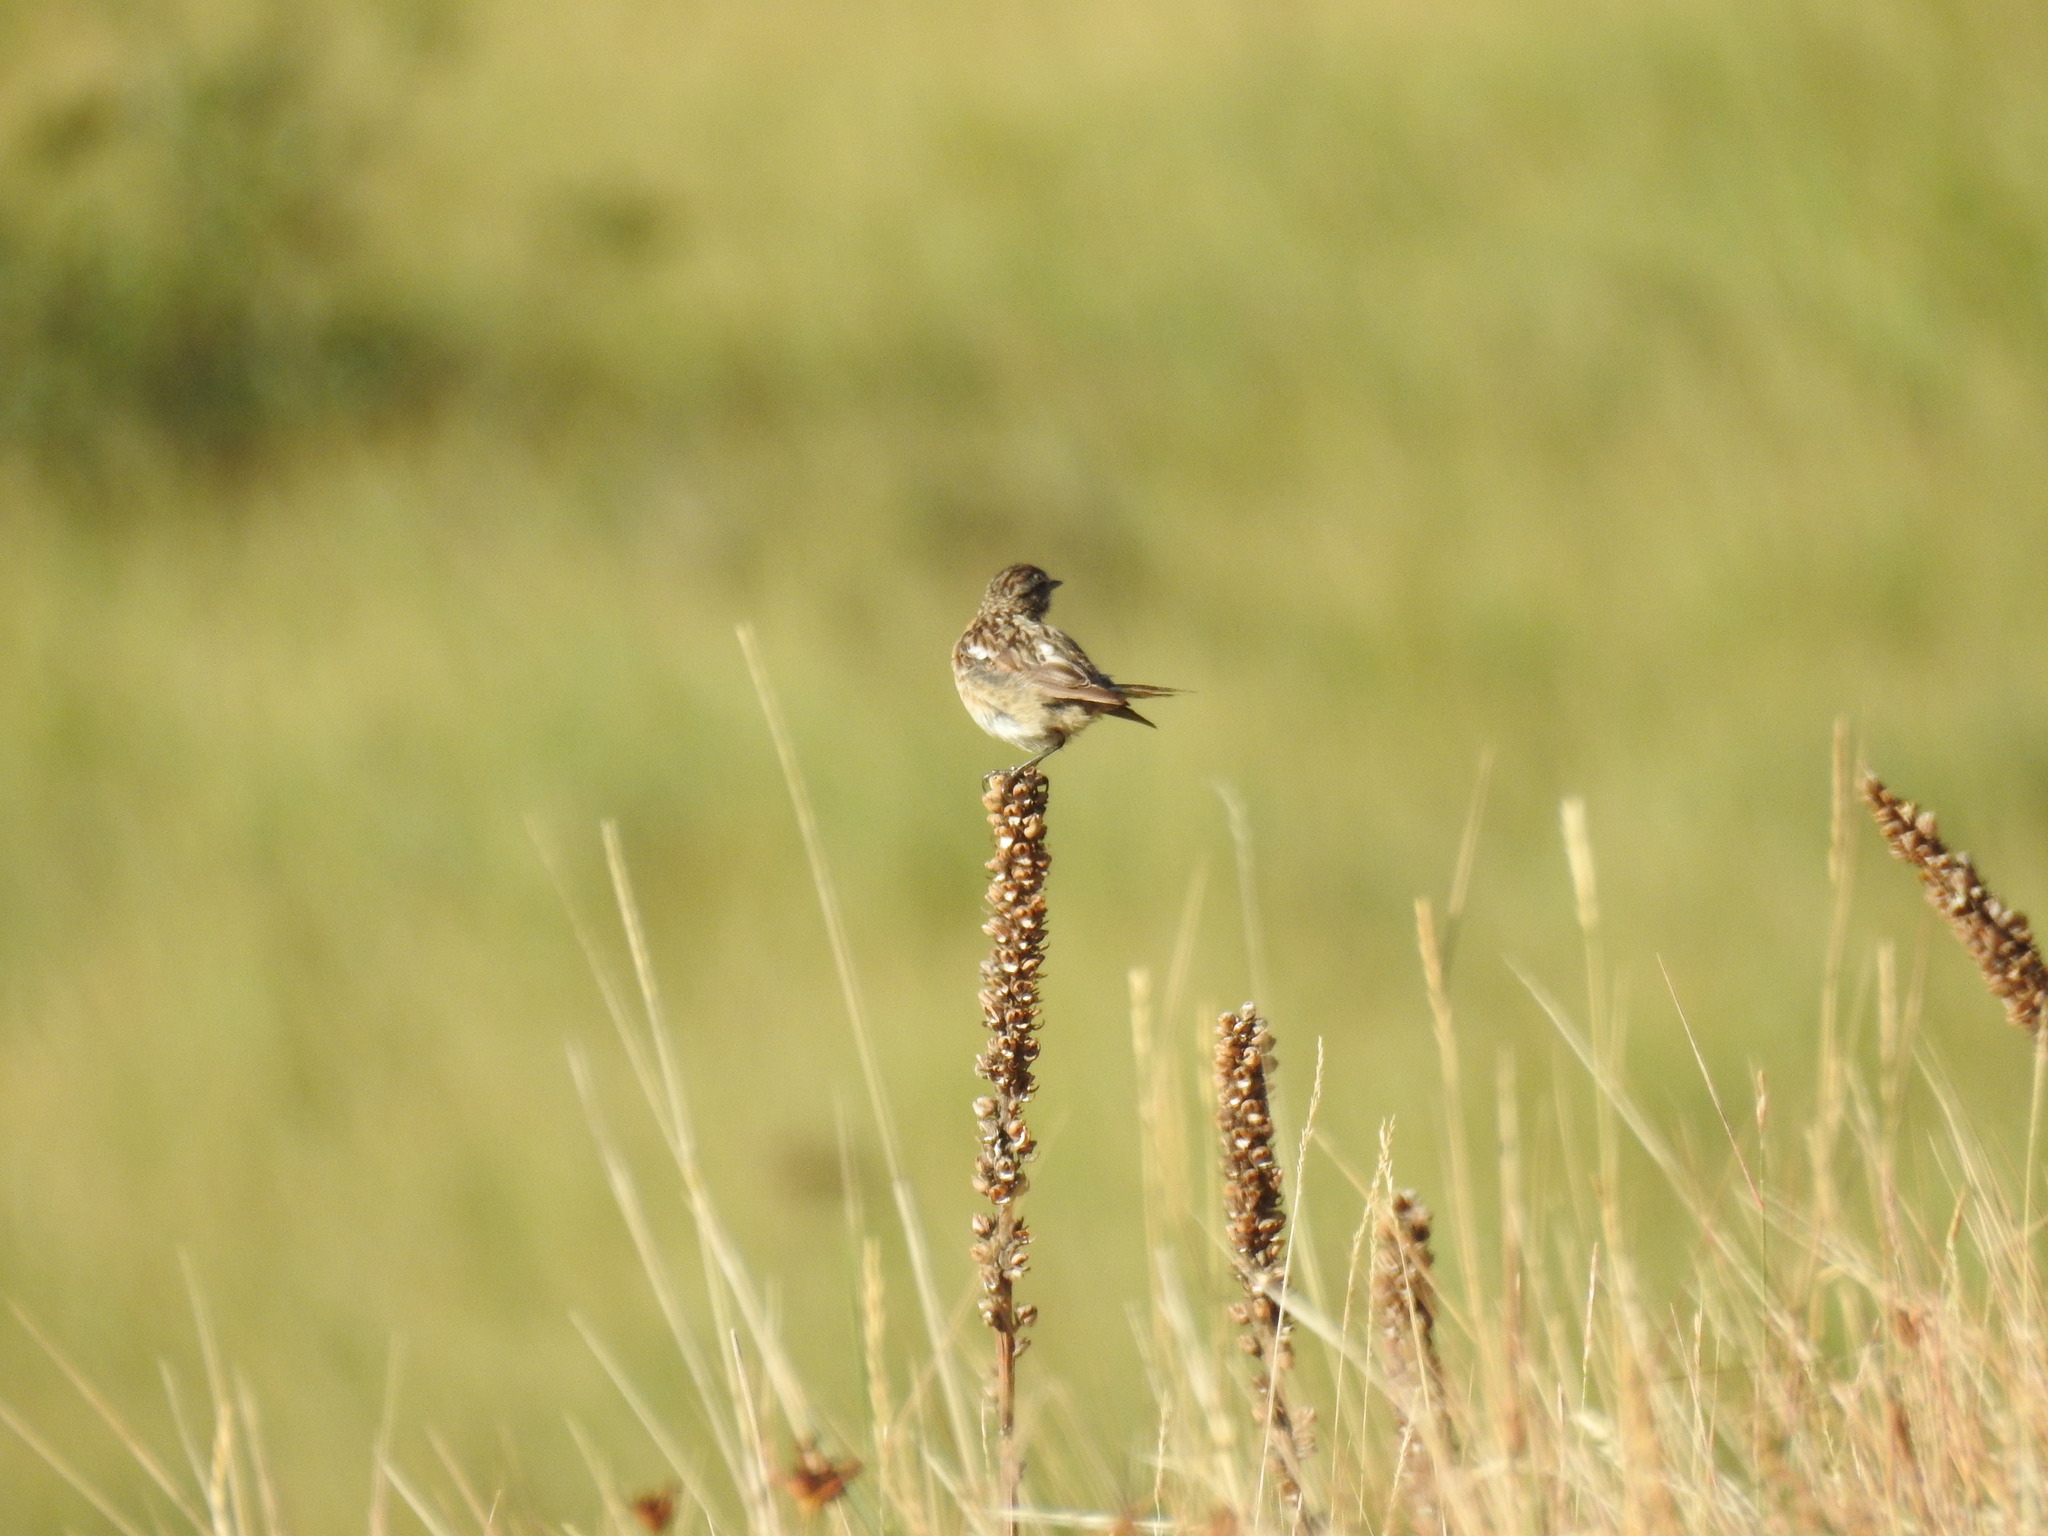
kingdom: Animalia
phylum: Chordata
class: Aves
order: Passeriformes
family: Muscicapidae
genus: Saxicola
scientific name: Saxicola rubetra
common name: Whinchat
